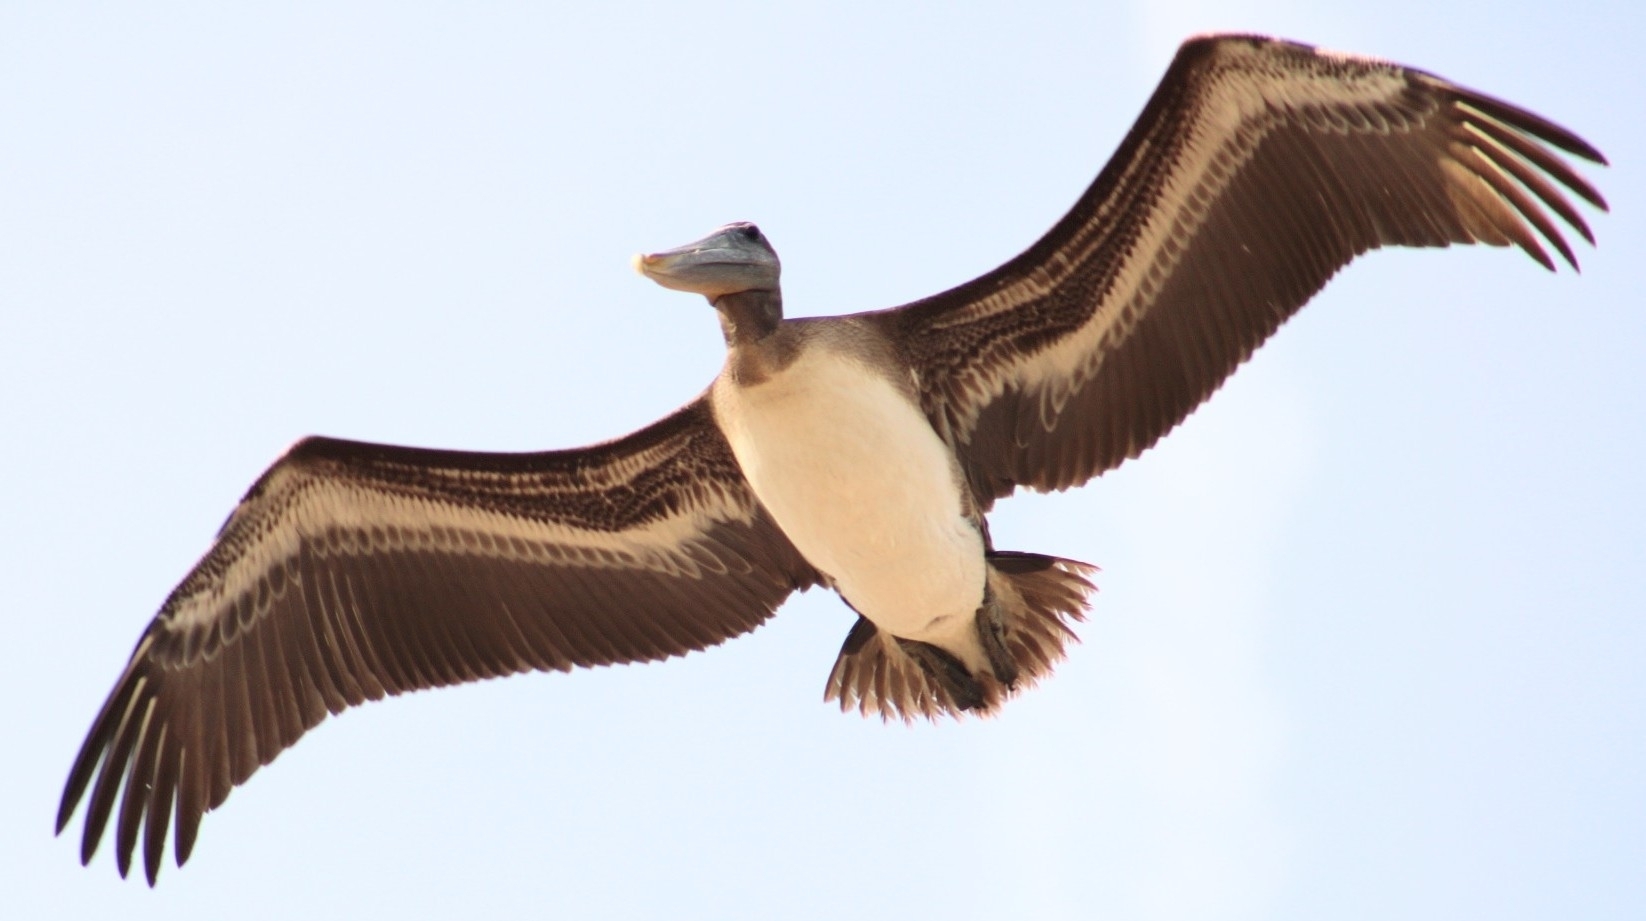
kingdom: Animalia
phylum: Chordata
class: Aves
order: Pelecaniformes
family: Pelecanidae
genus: Pelecanus
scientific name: Pelecanus occidentalis
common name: Brown pelican
